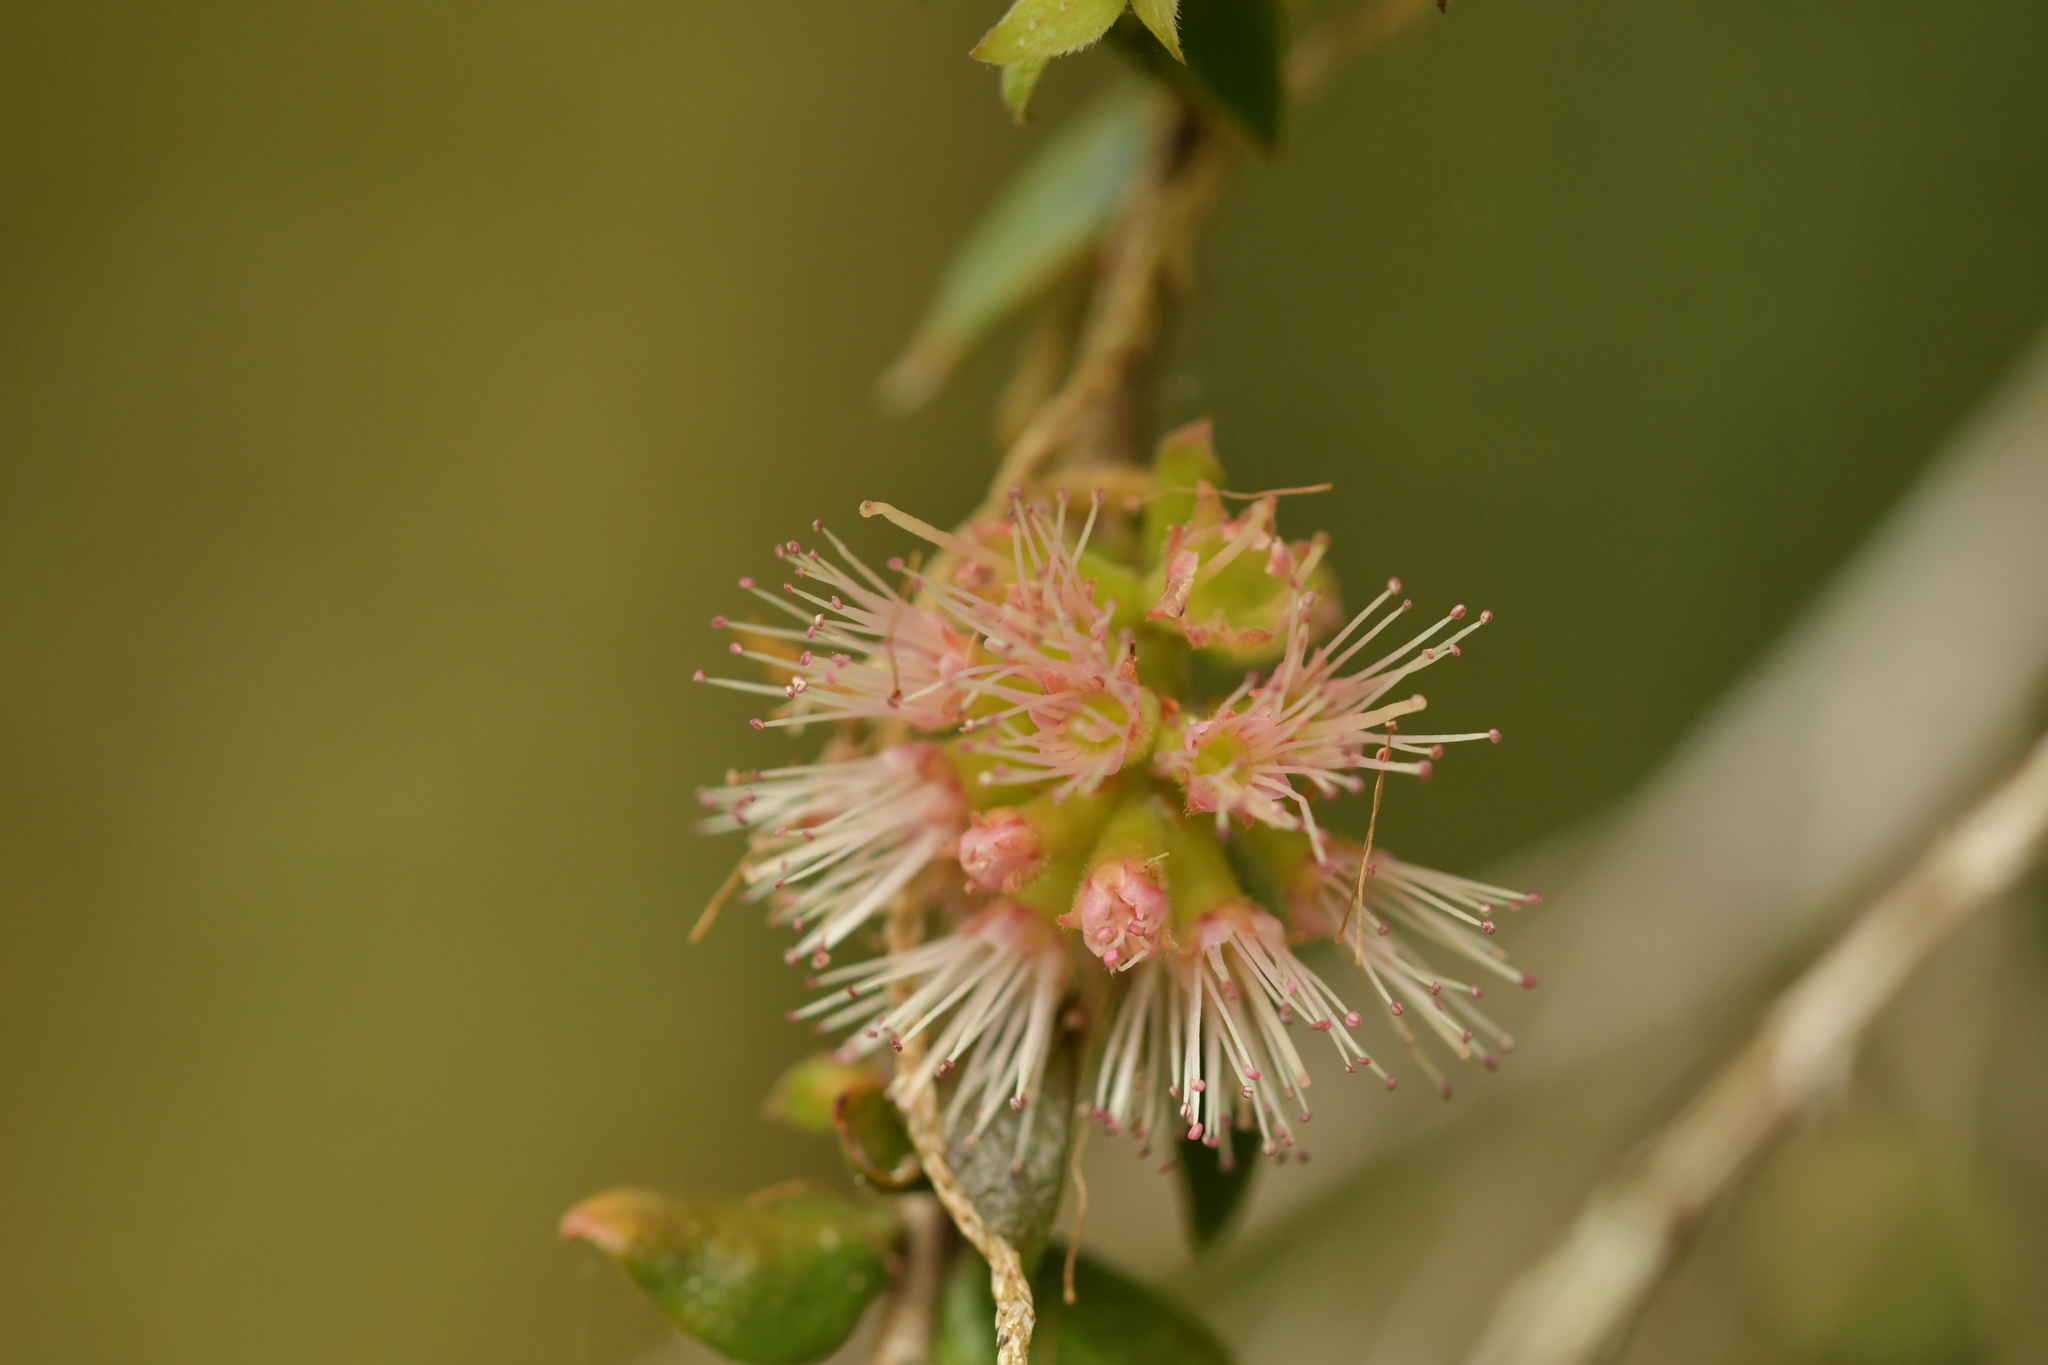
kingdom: Plantae
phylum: Tracheophyta
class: Magnoliopsida
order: Myrtales
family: Myrtaceae
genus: Metrosideros
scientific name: Metrosideros colensoi
